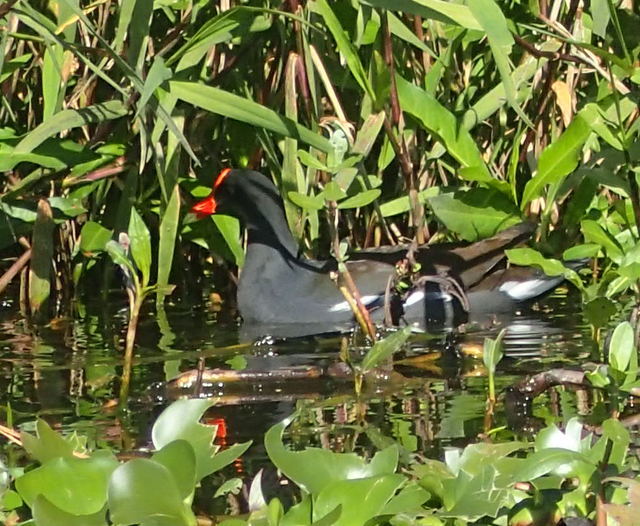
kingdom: Animalia
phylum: Chordata
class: Aves
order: Gruiformes
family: Rallidae
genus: Gallinula
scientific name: Gallinula chloropus
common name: Common moorhen
